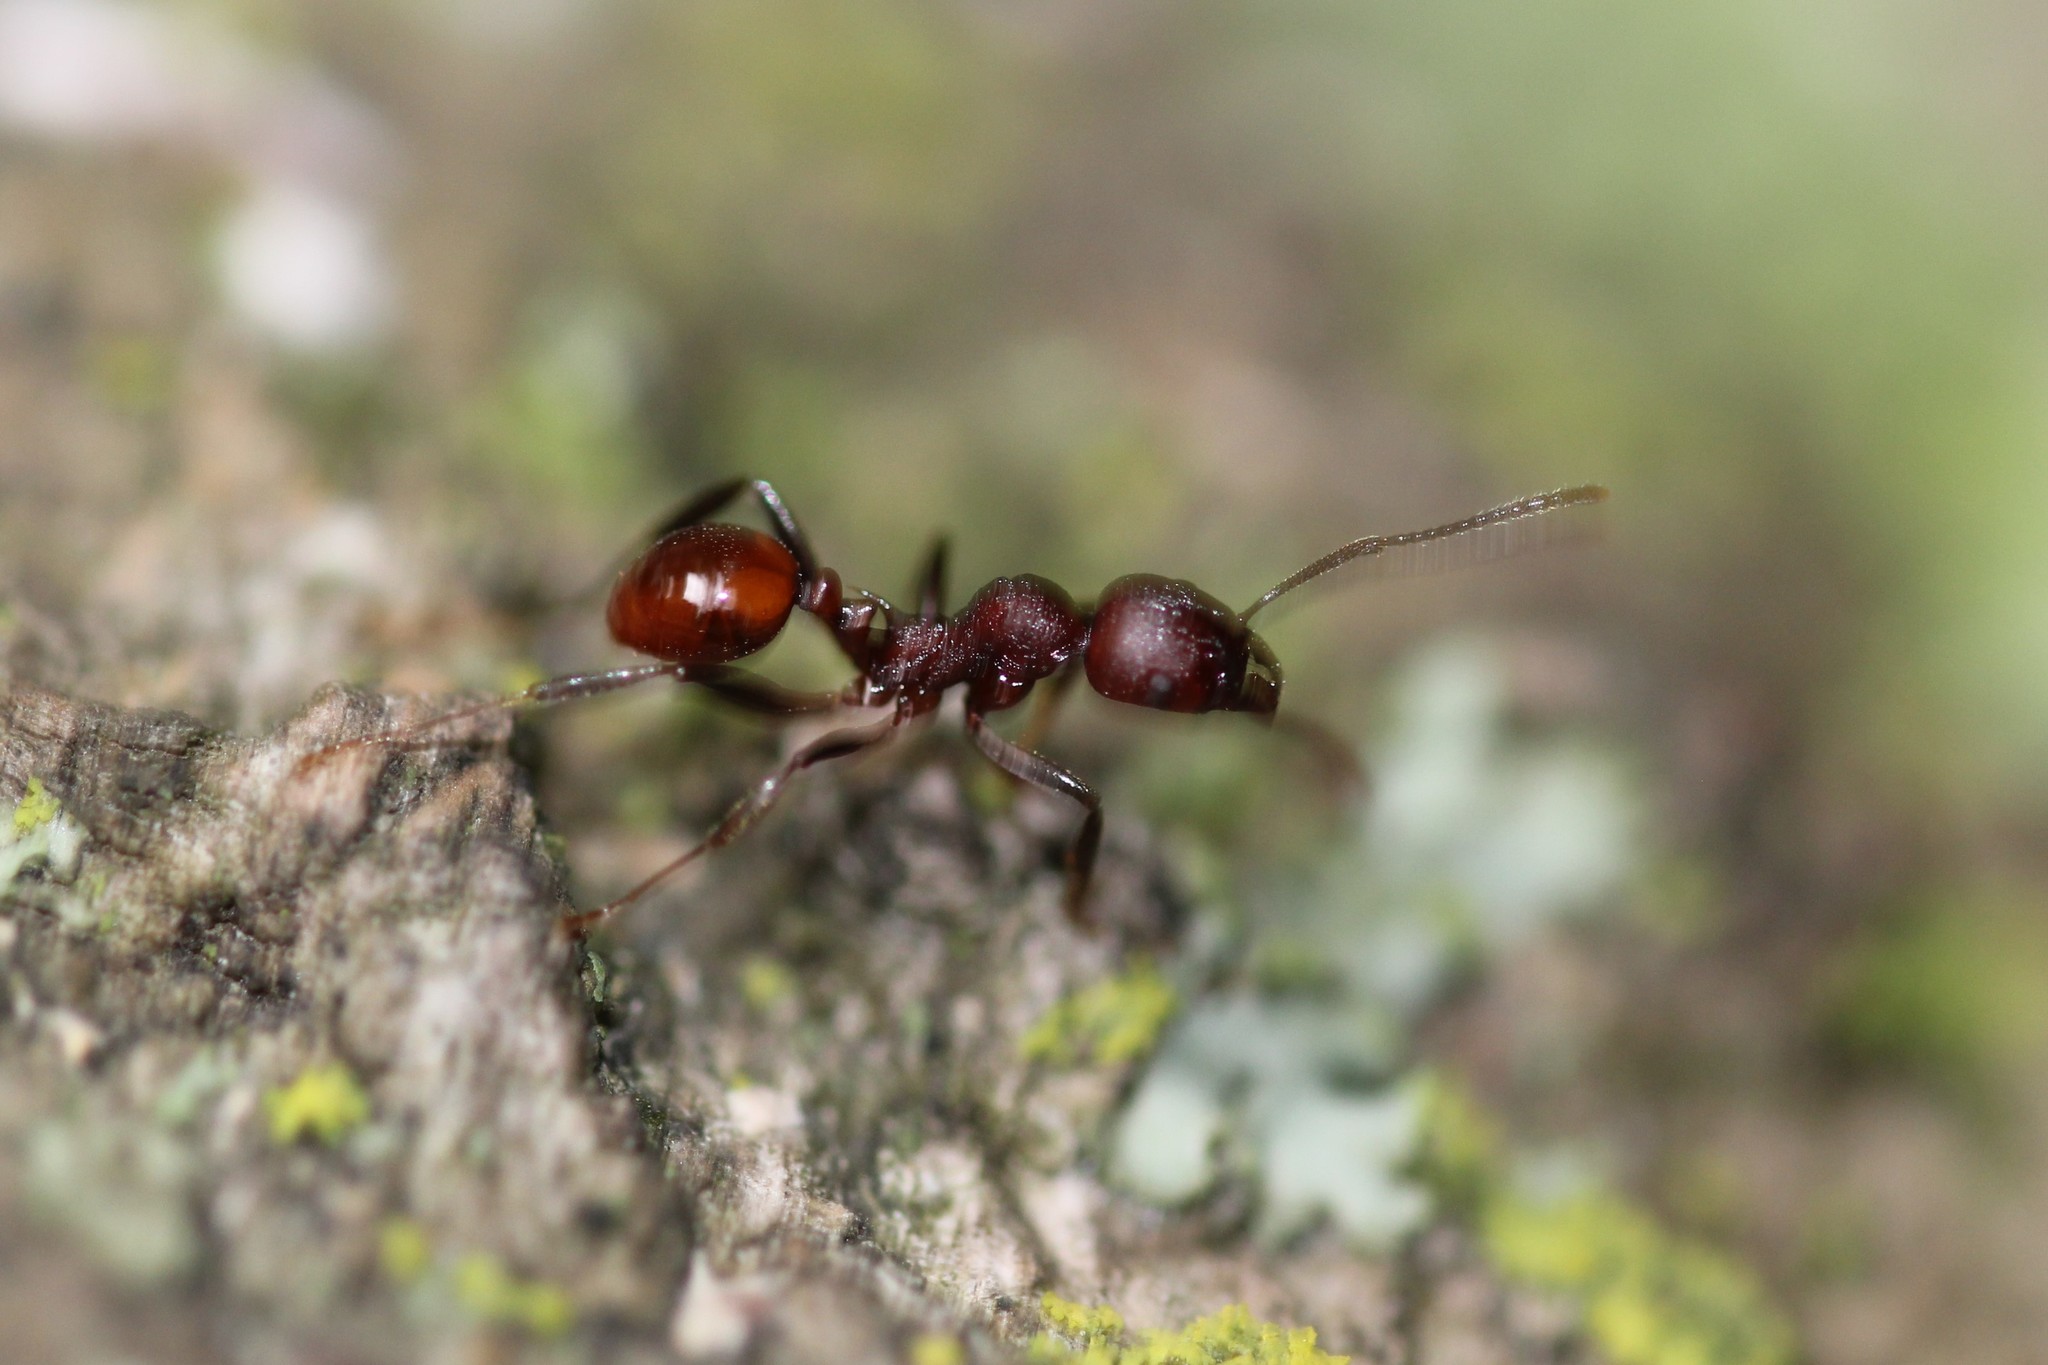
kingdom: Animalia
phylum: Arthropoda
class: Insecta
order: Hymenoptera
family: Formicidae
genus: Aphaenogaster
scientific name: Aphaenogaster tennesseensis
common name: Tennessee thread-waisted ant
